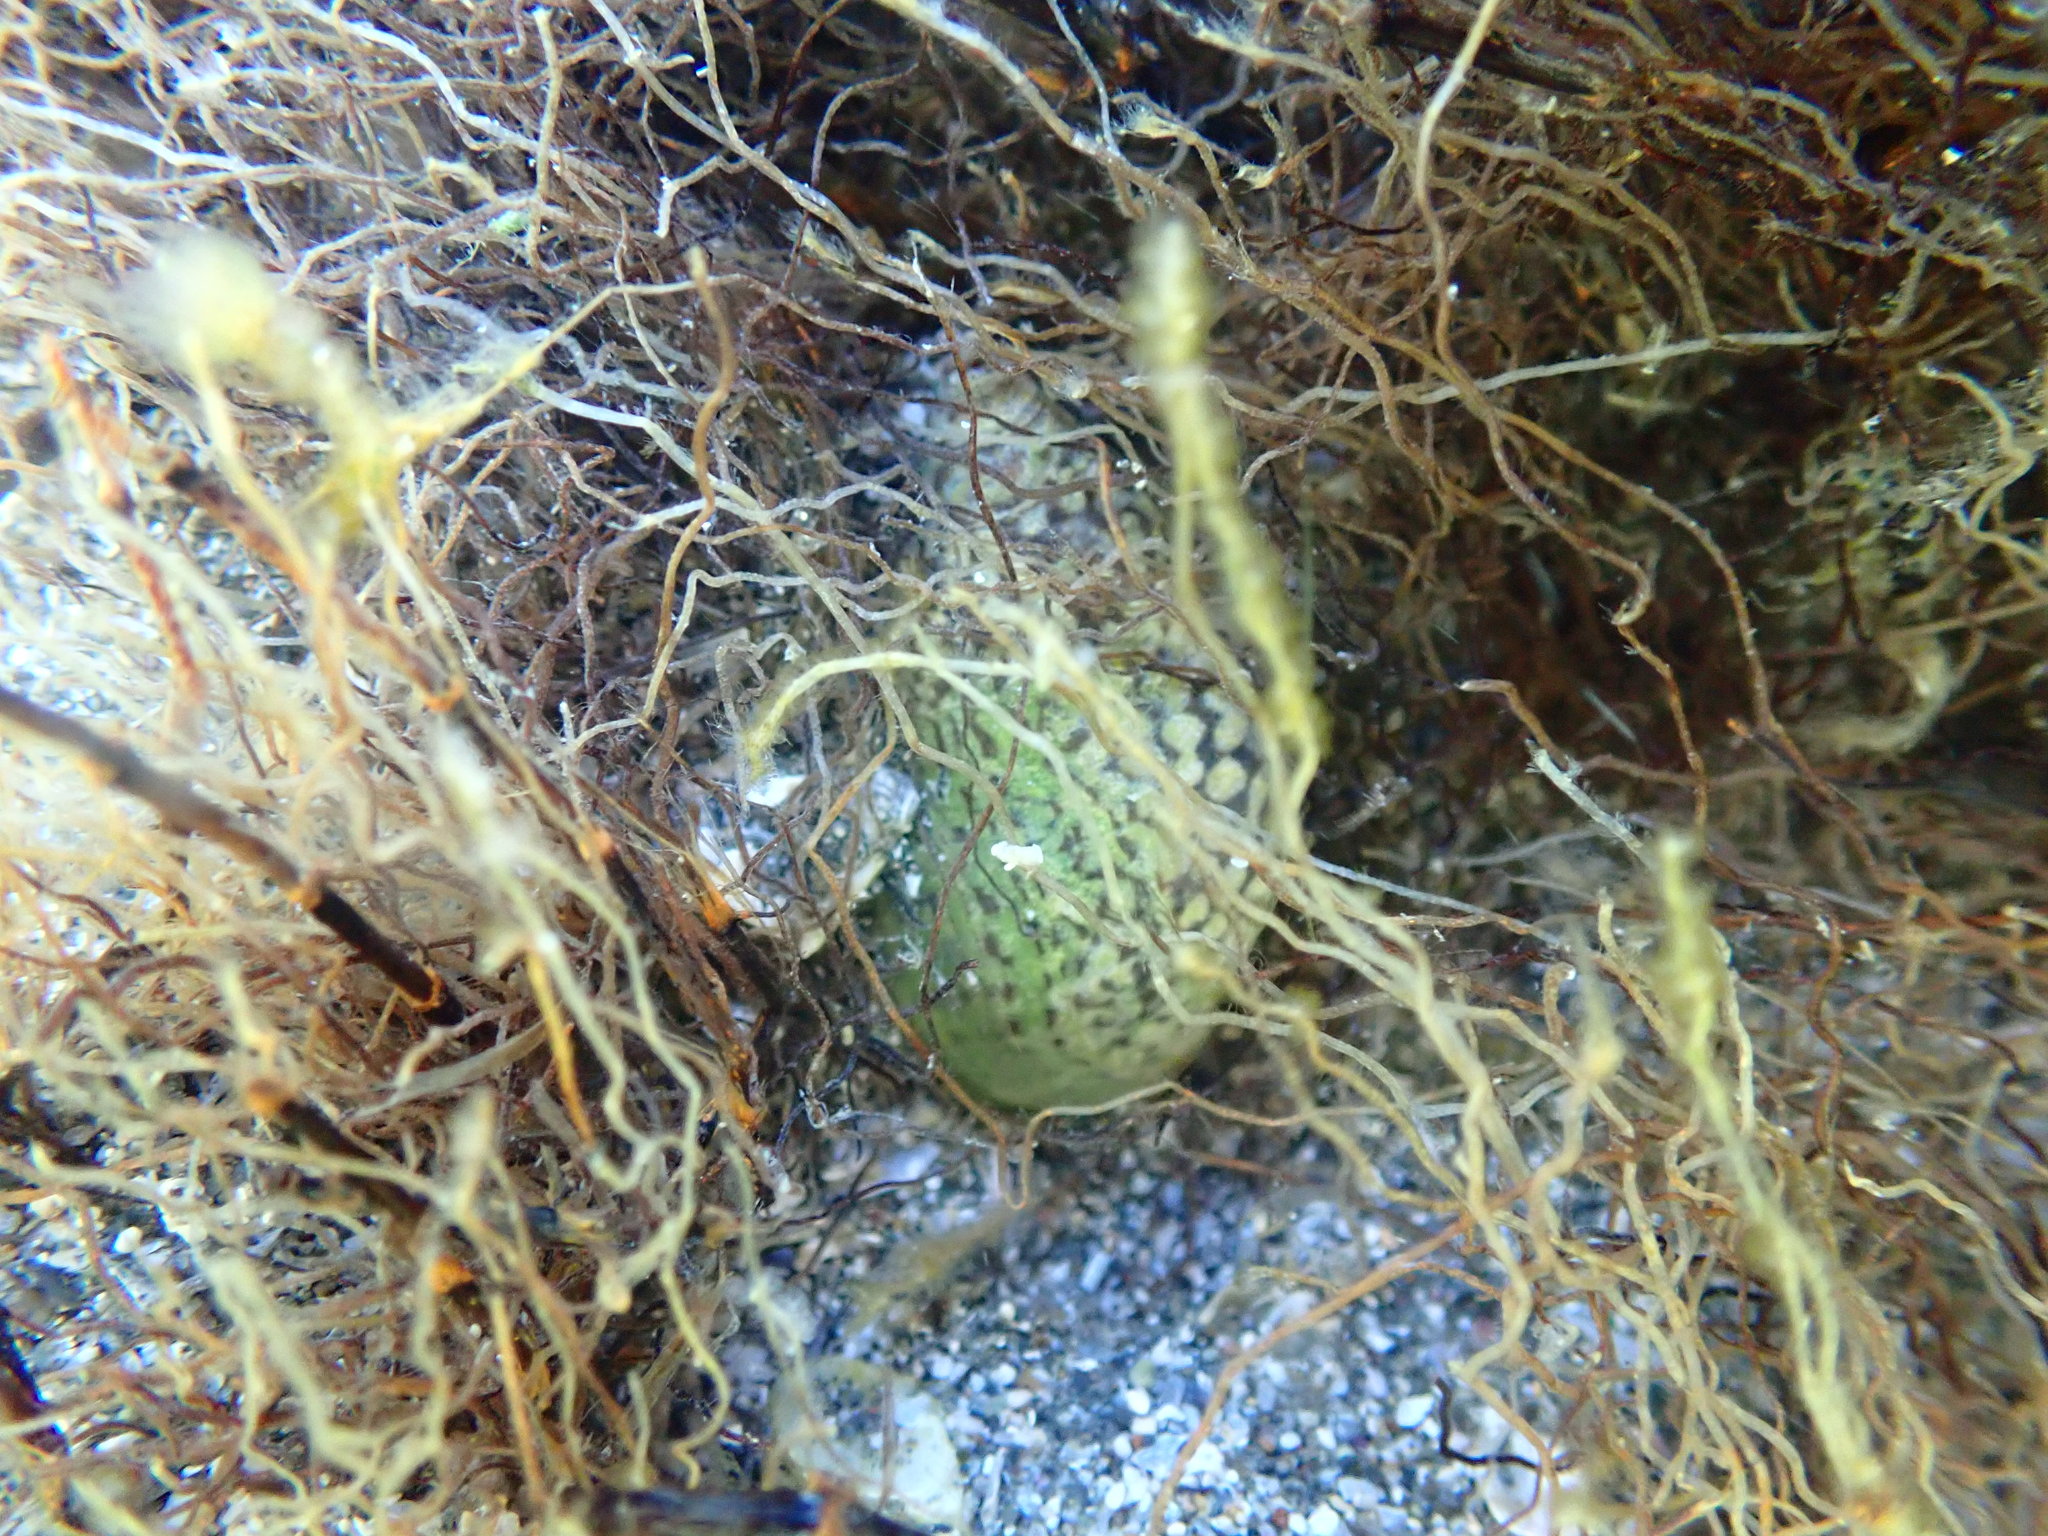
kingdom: Animalia
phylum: Mollusca
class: Gastropoda
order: Neogastropoda
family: Cominellidae
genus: Cominella
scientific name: Cominella maculosa
